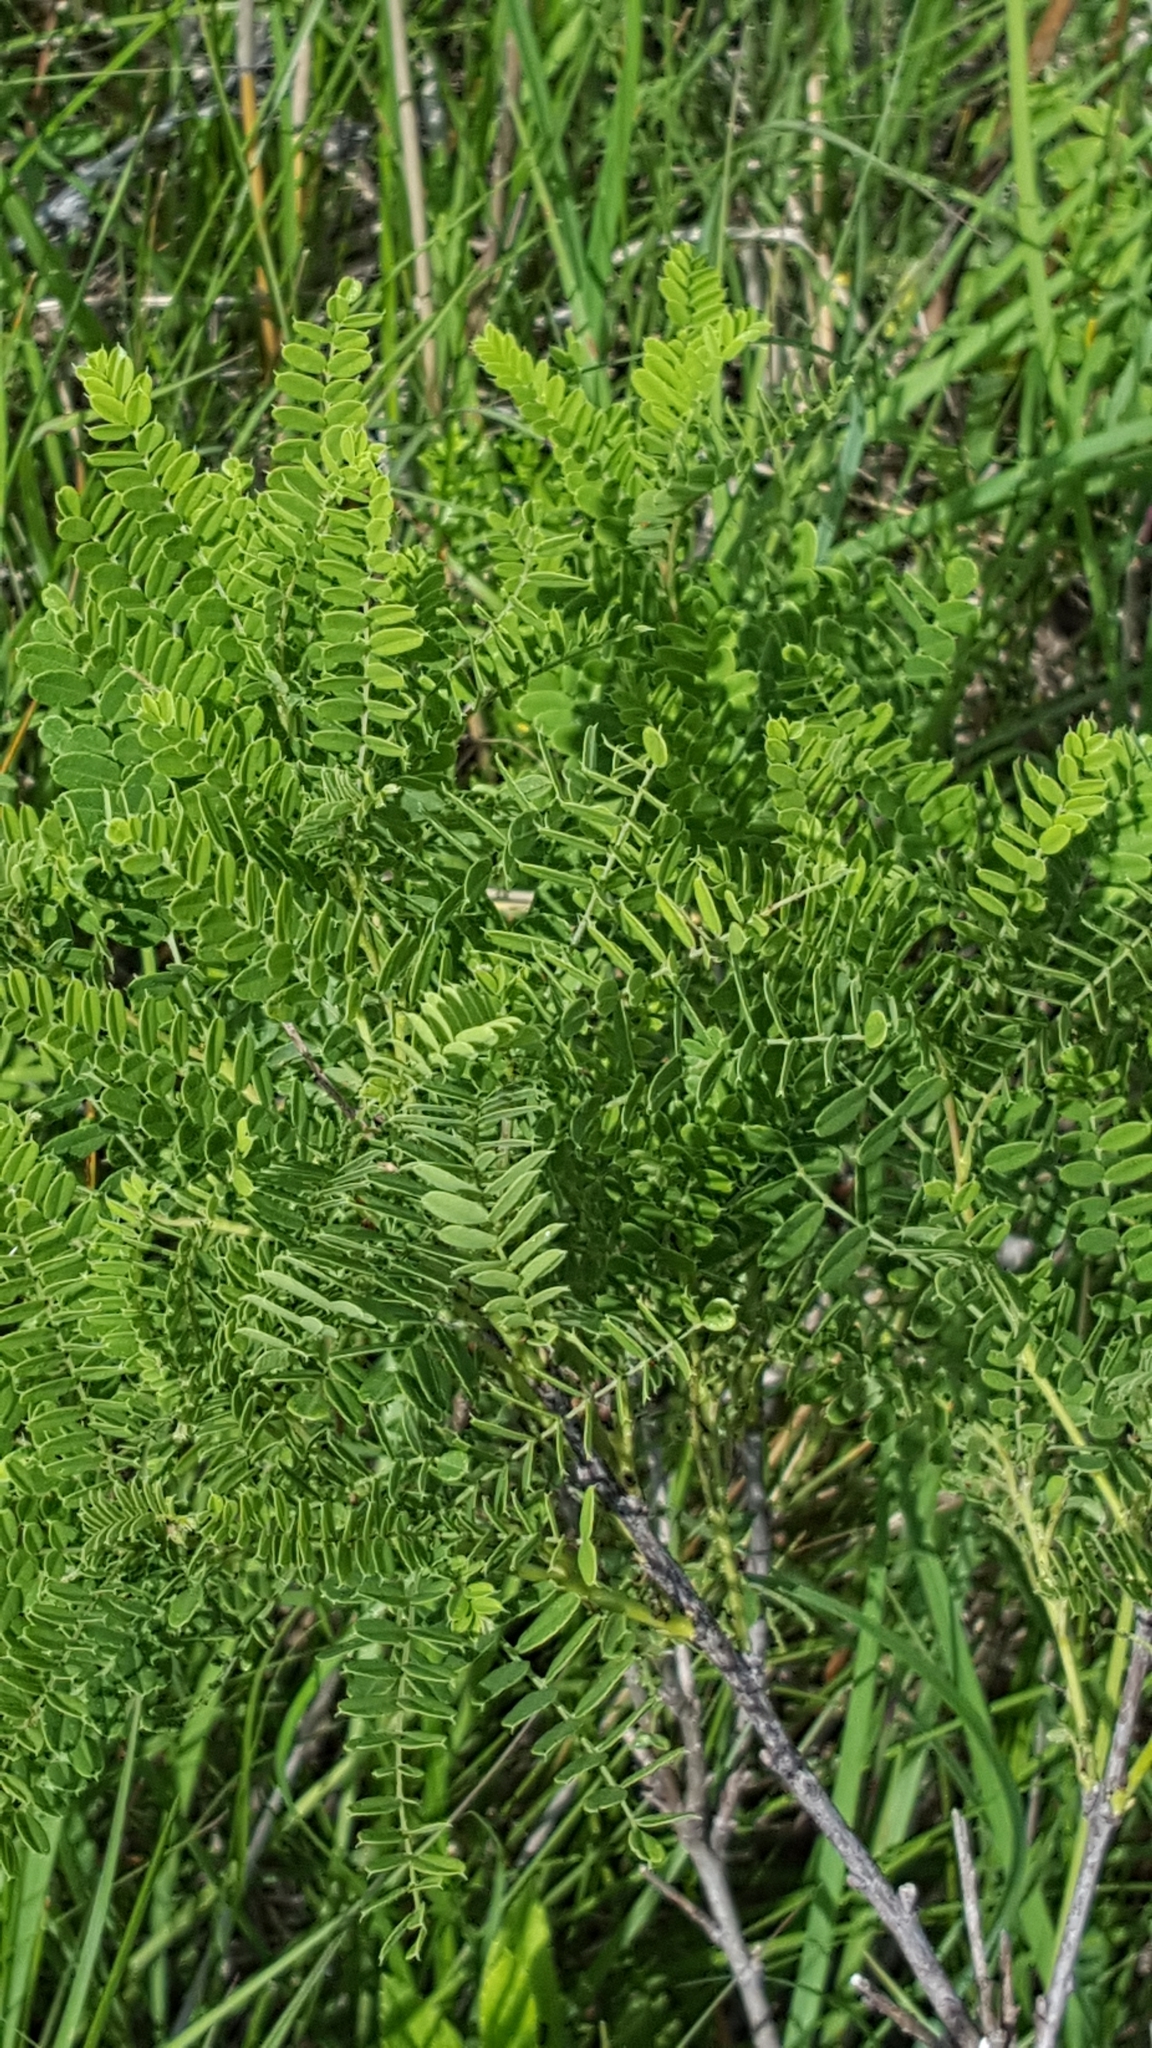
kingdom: Plantae
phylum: Tracheophyta
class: Magnoliopsida
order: Fabales
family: Fabaceae
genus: Amorpha
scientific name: Amorpha nana
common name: Fragrant false indigo
